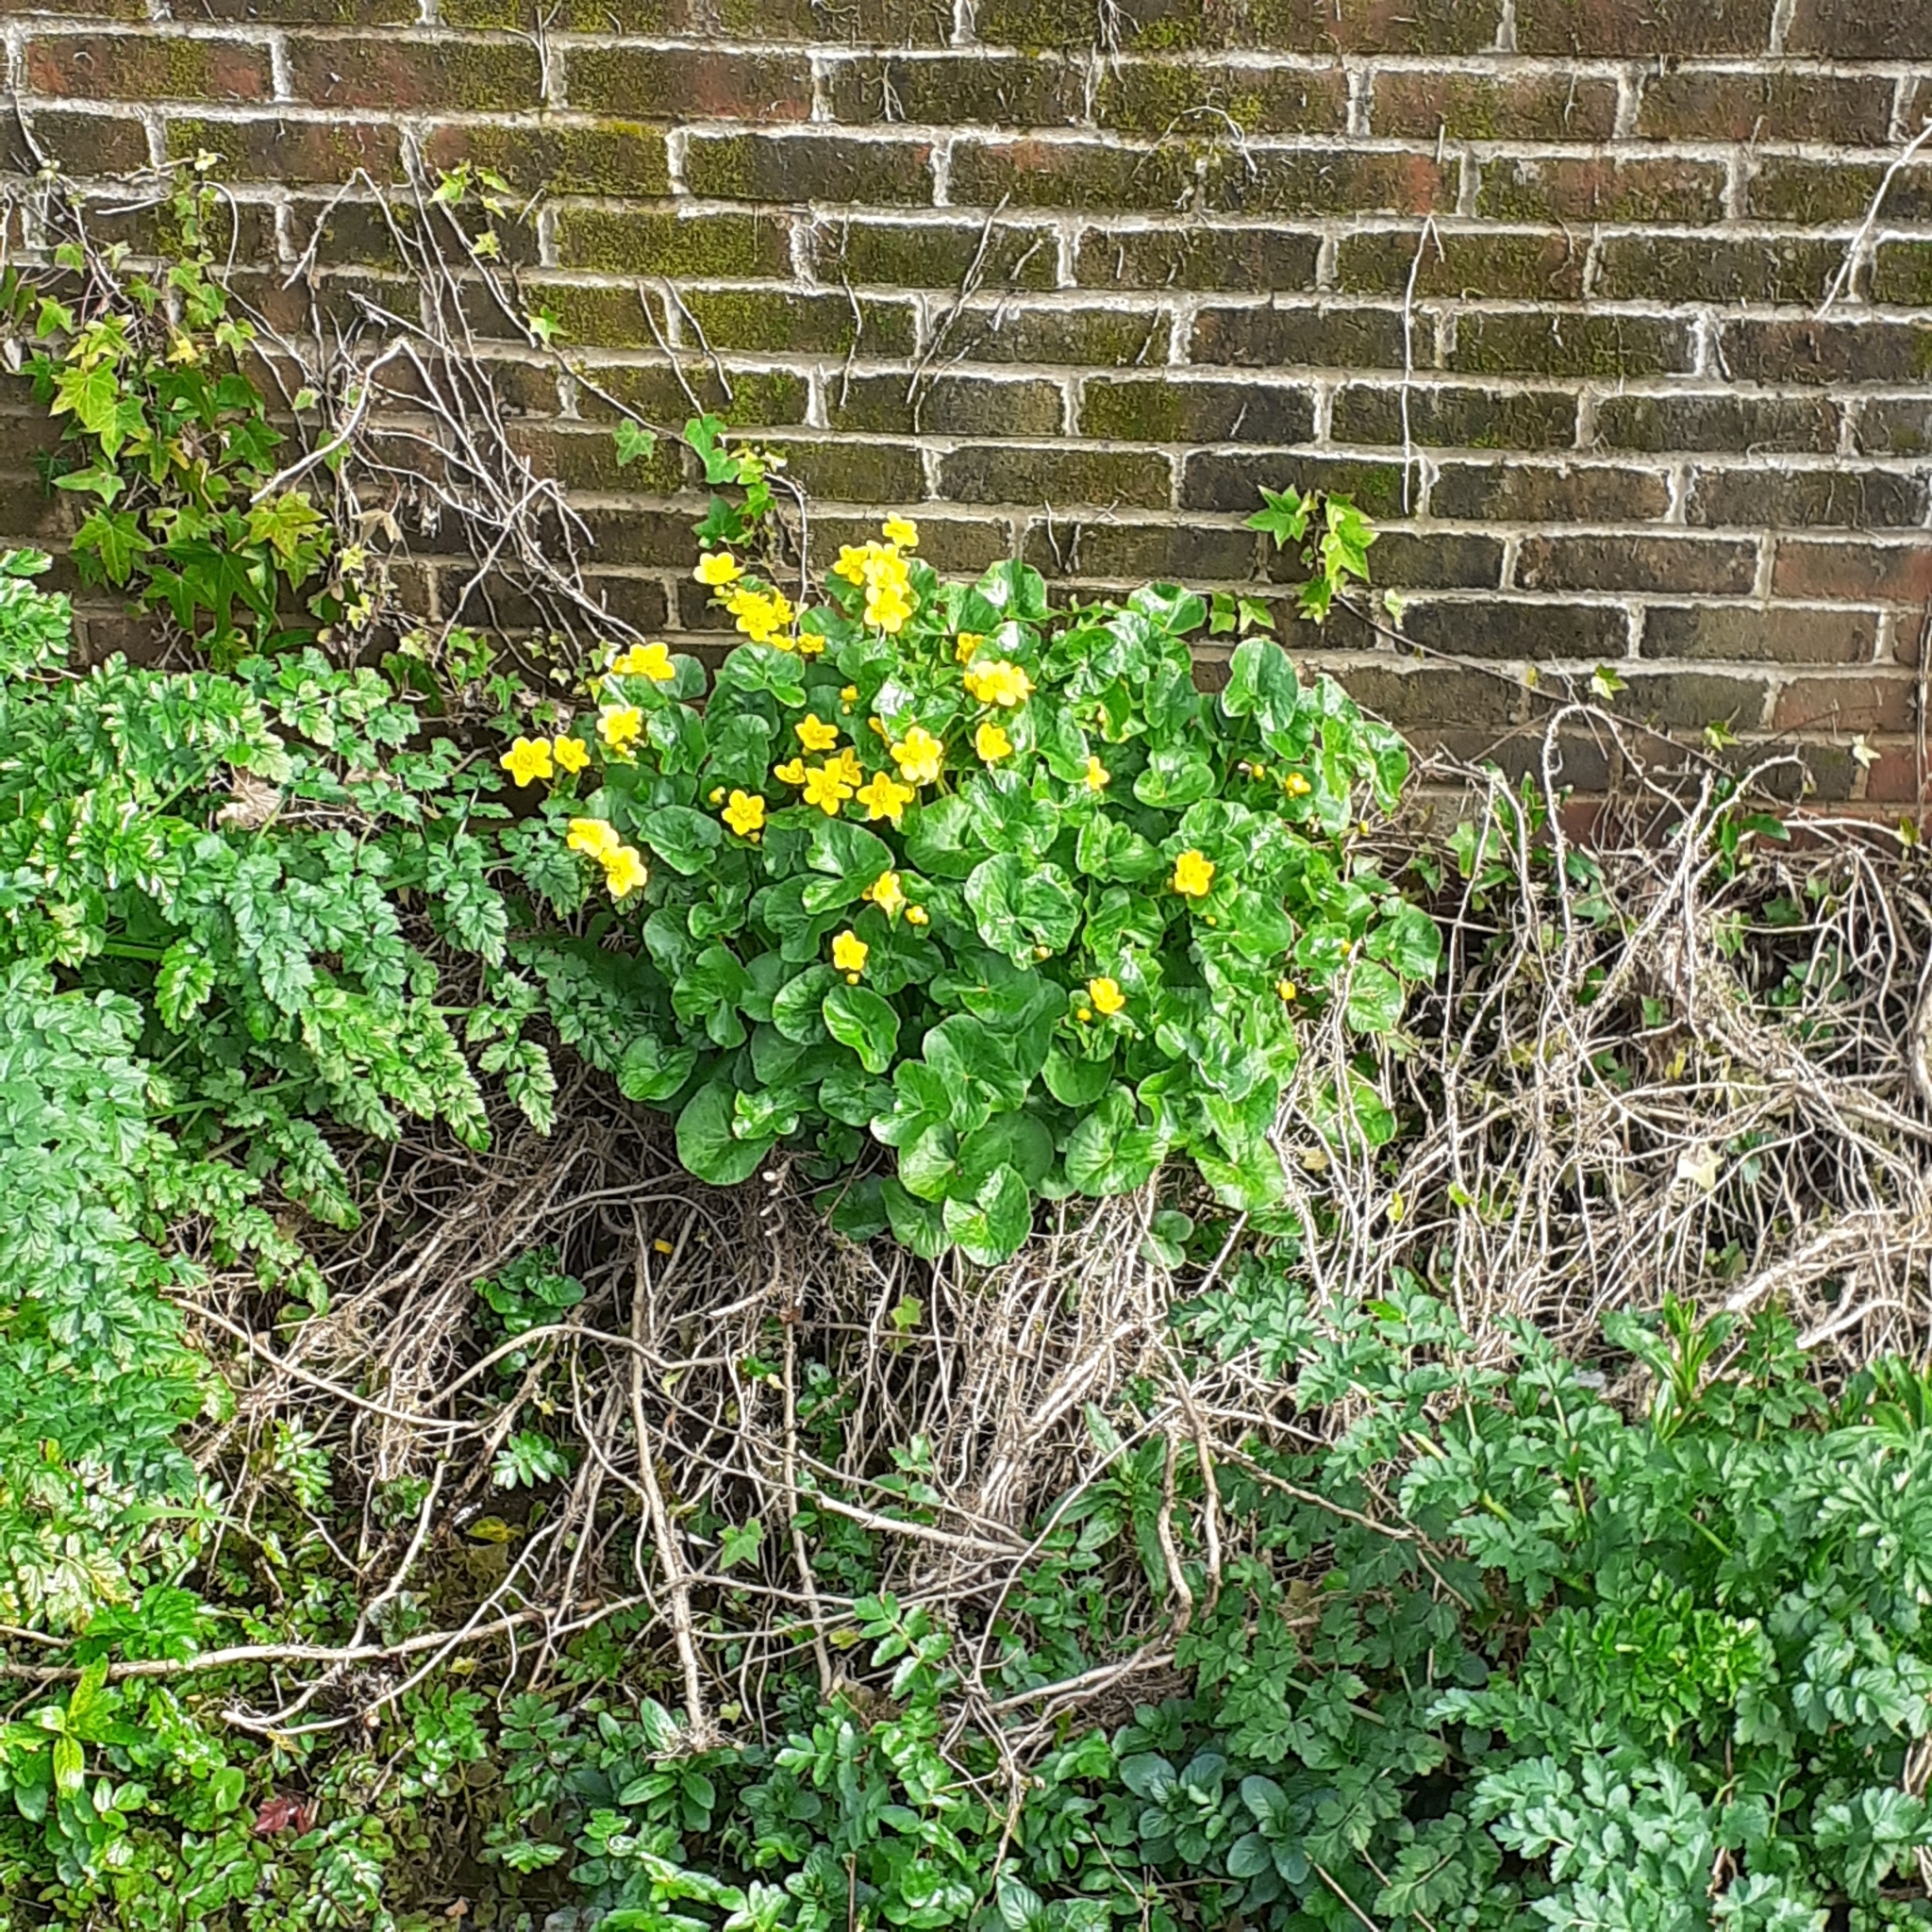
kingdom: Plantae
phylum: Tracheophyta
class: Magnoliopsida
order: Ranunculales
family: Ranunculaceae
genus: Caltha
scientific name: Caltha palustris
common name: Marsh marigold
